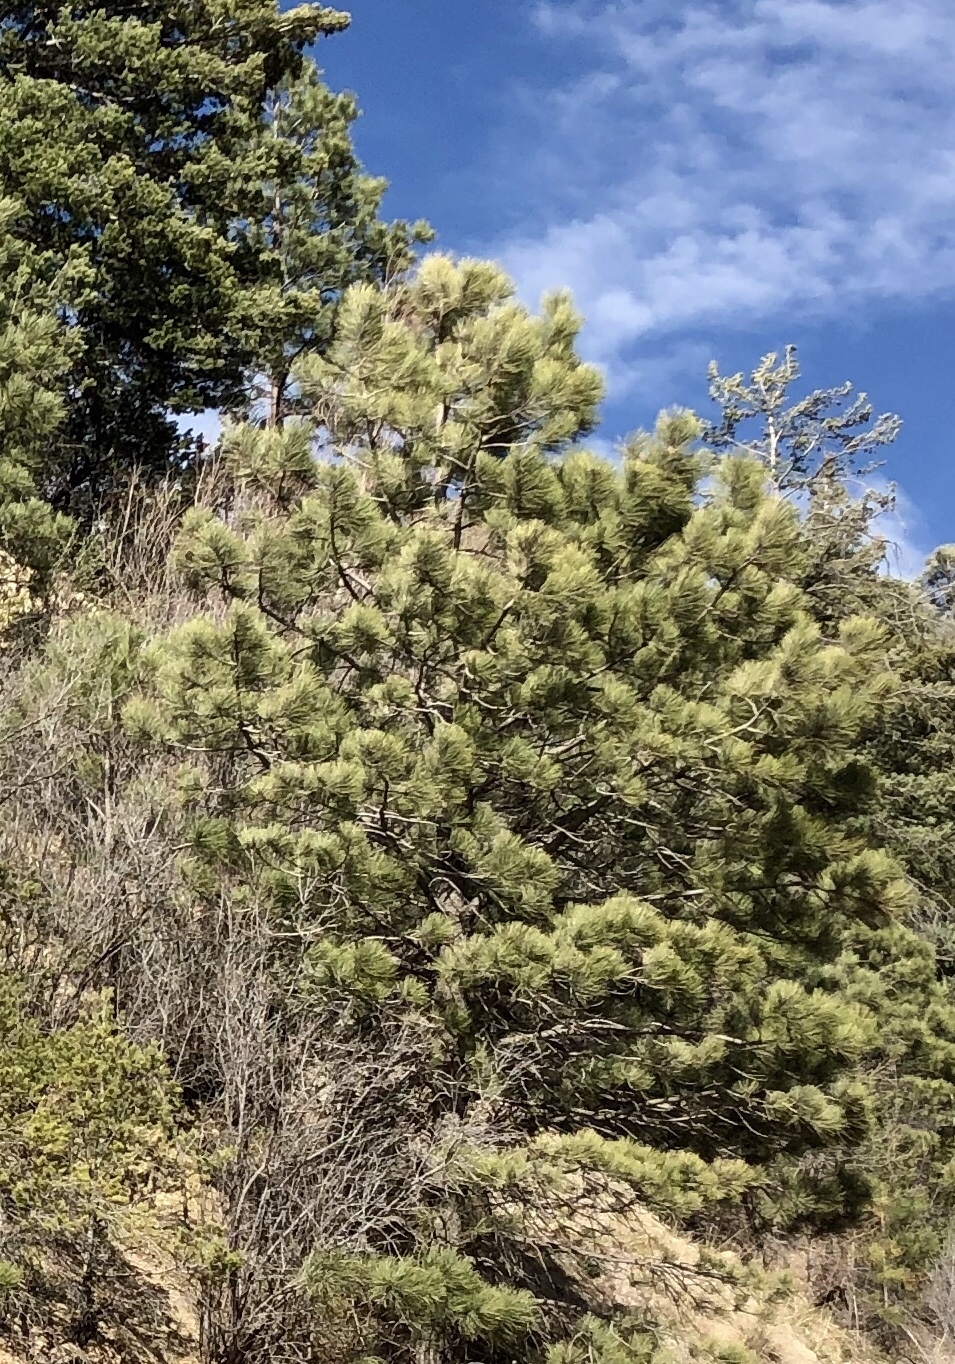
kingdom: Plantae
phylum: Tracheophyta
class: Pinopsida
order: Pinales
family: Pinaceae
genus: Pinus
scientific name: Pinus ponderosa
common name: Western yellow-pine
